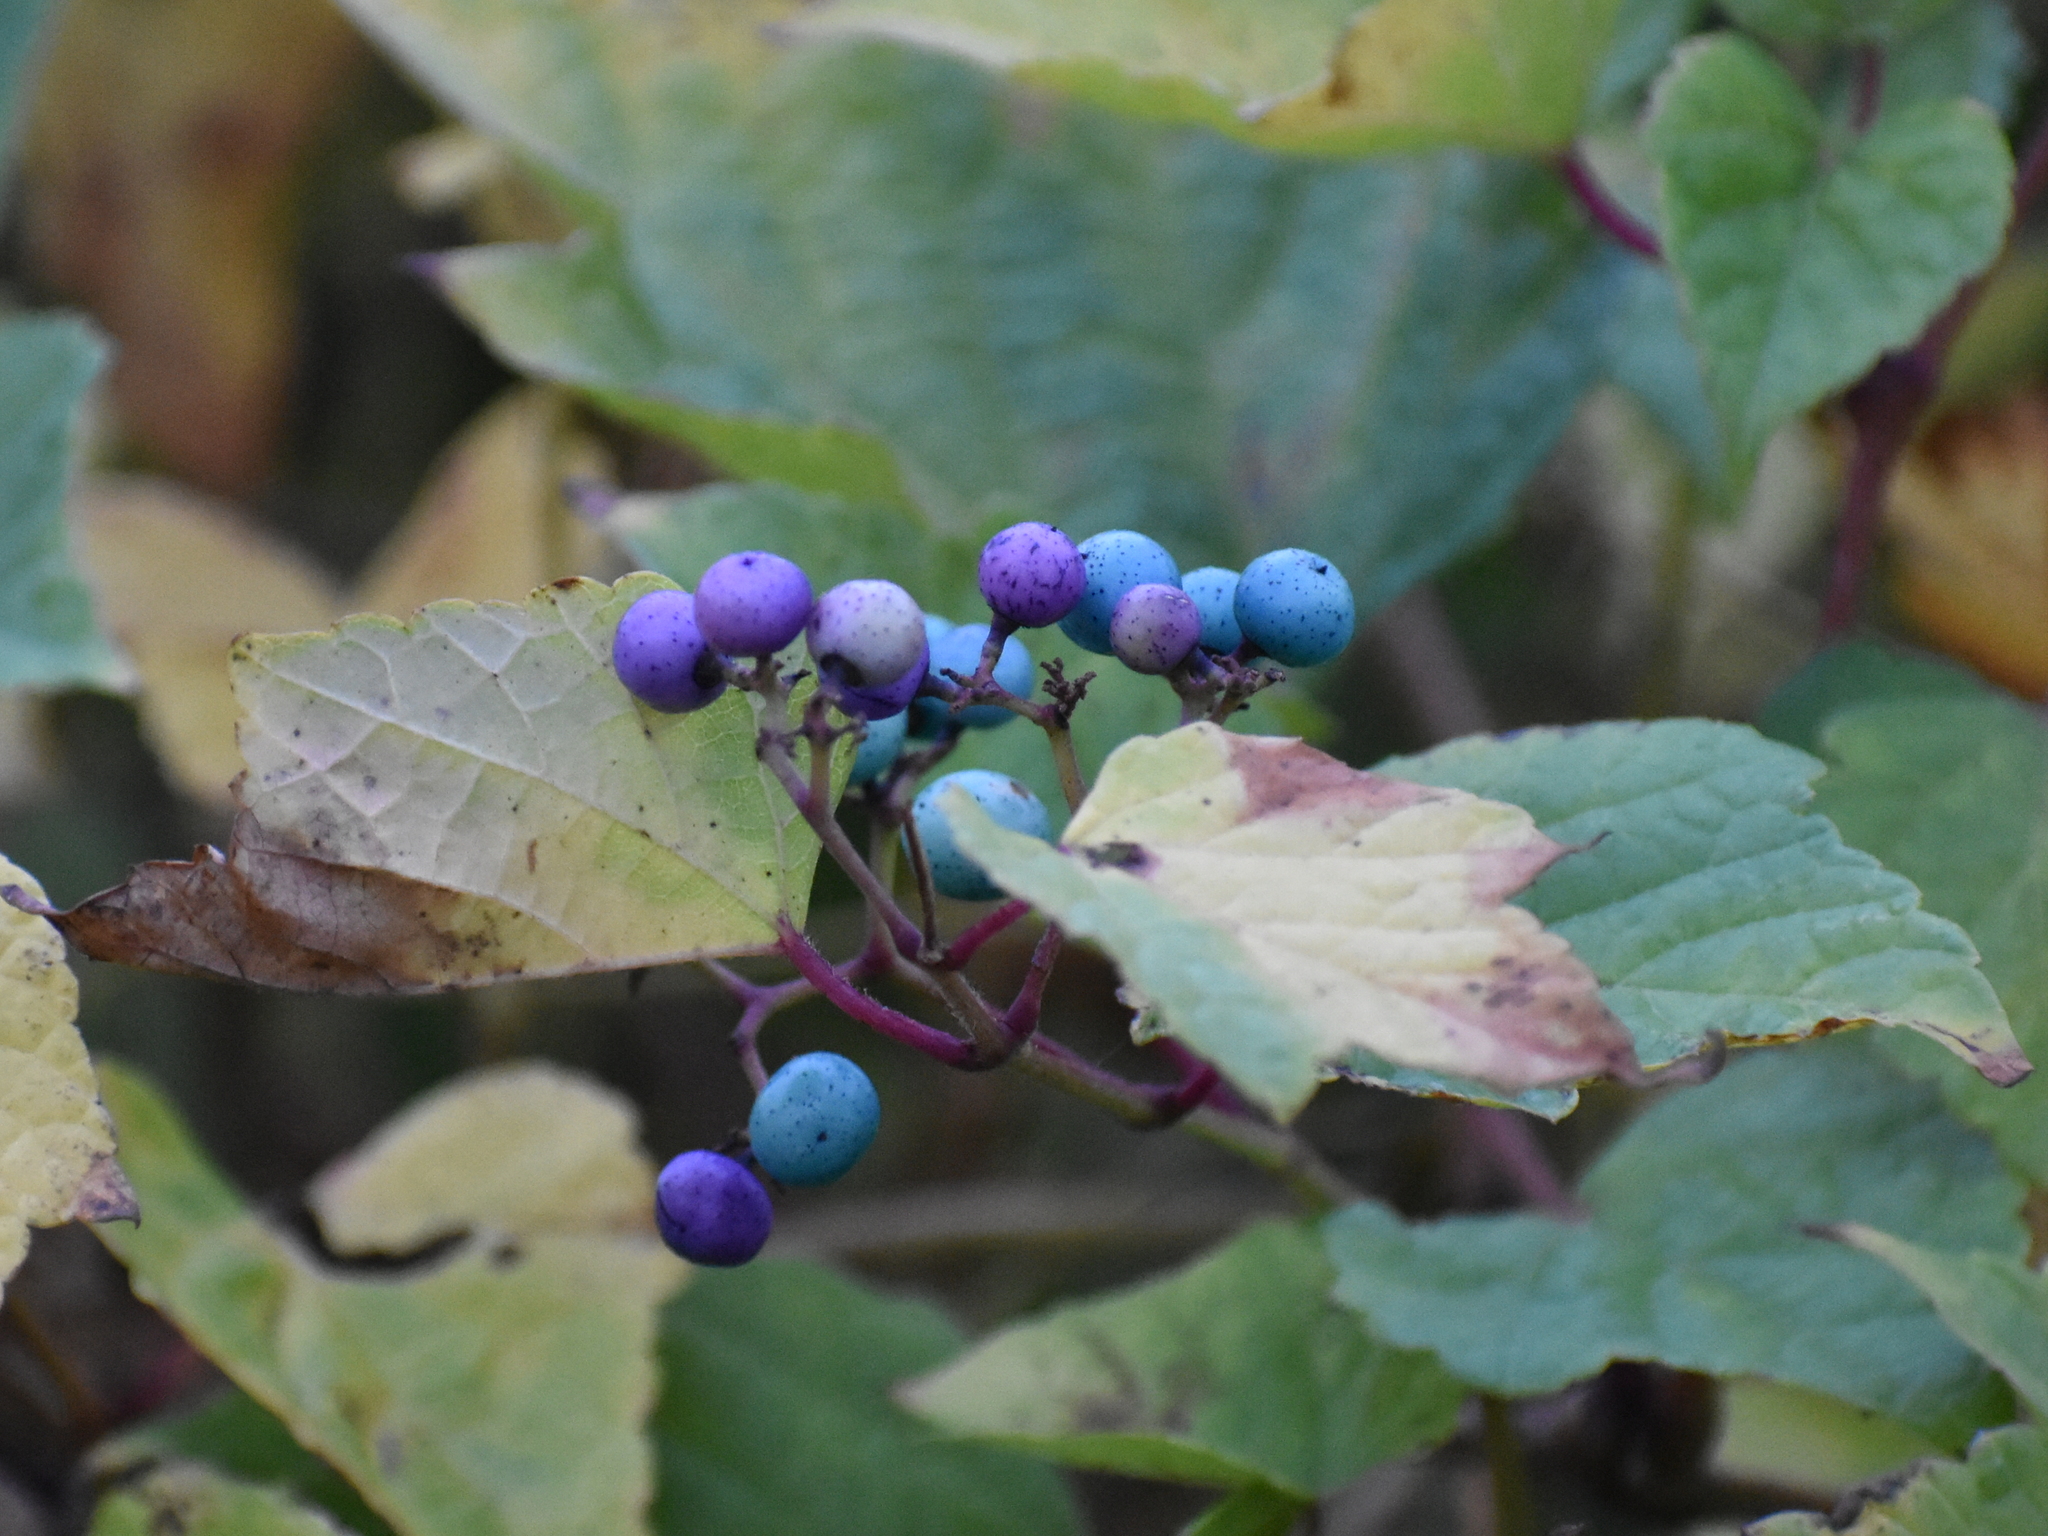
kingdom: Plantae
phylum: Tracheophyta
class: Magnoliopsida
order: Vitales
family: Vitaceae
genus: Ampelopsis
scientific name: Ampelopsis glandulosa
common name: Amur peppervine
